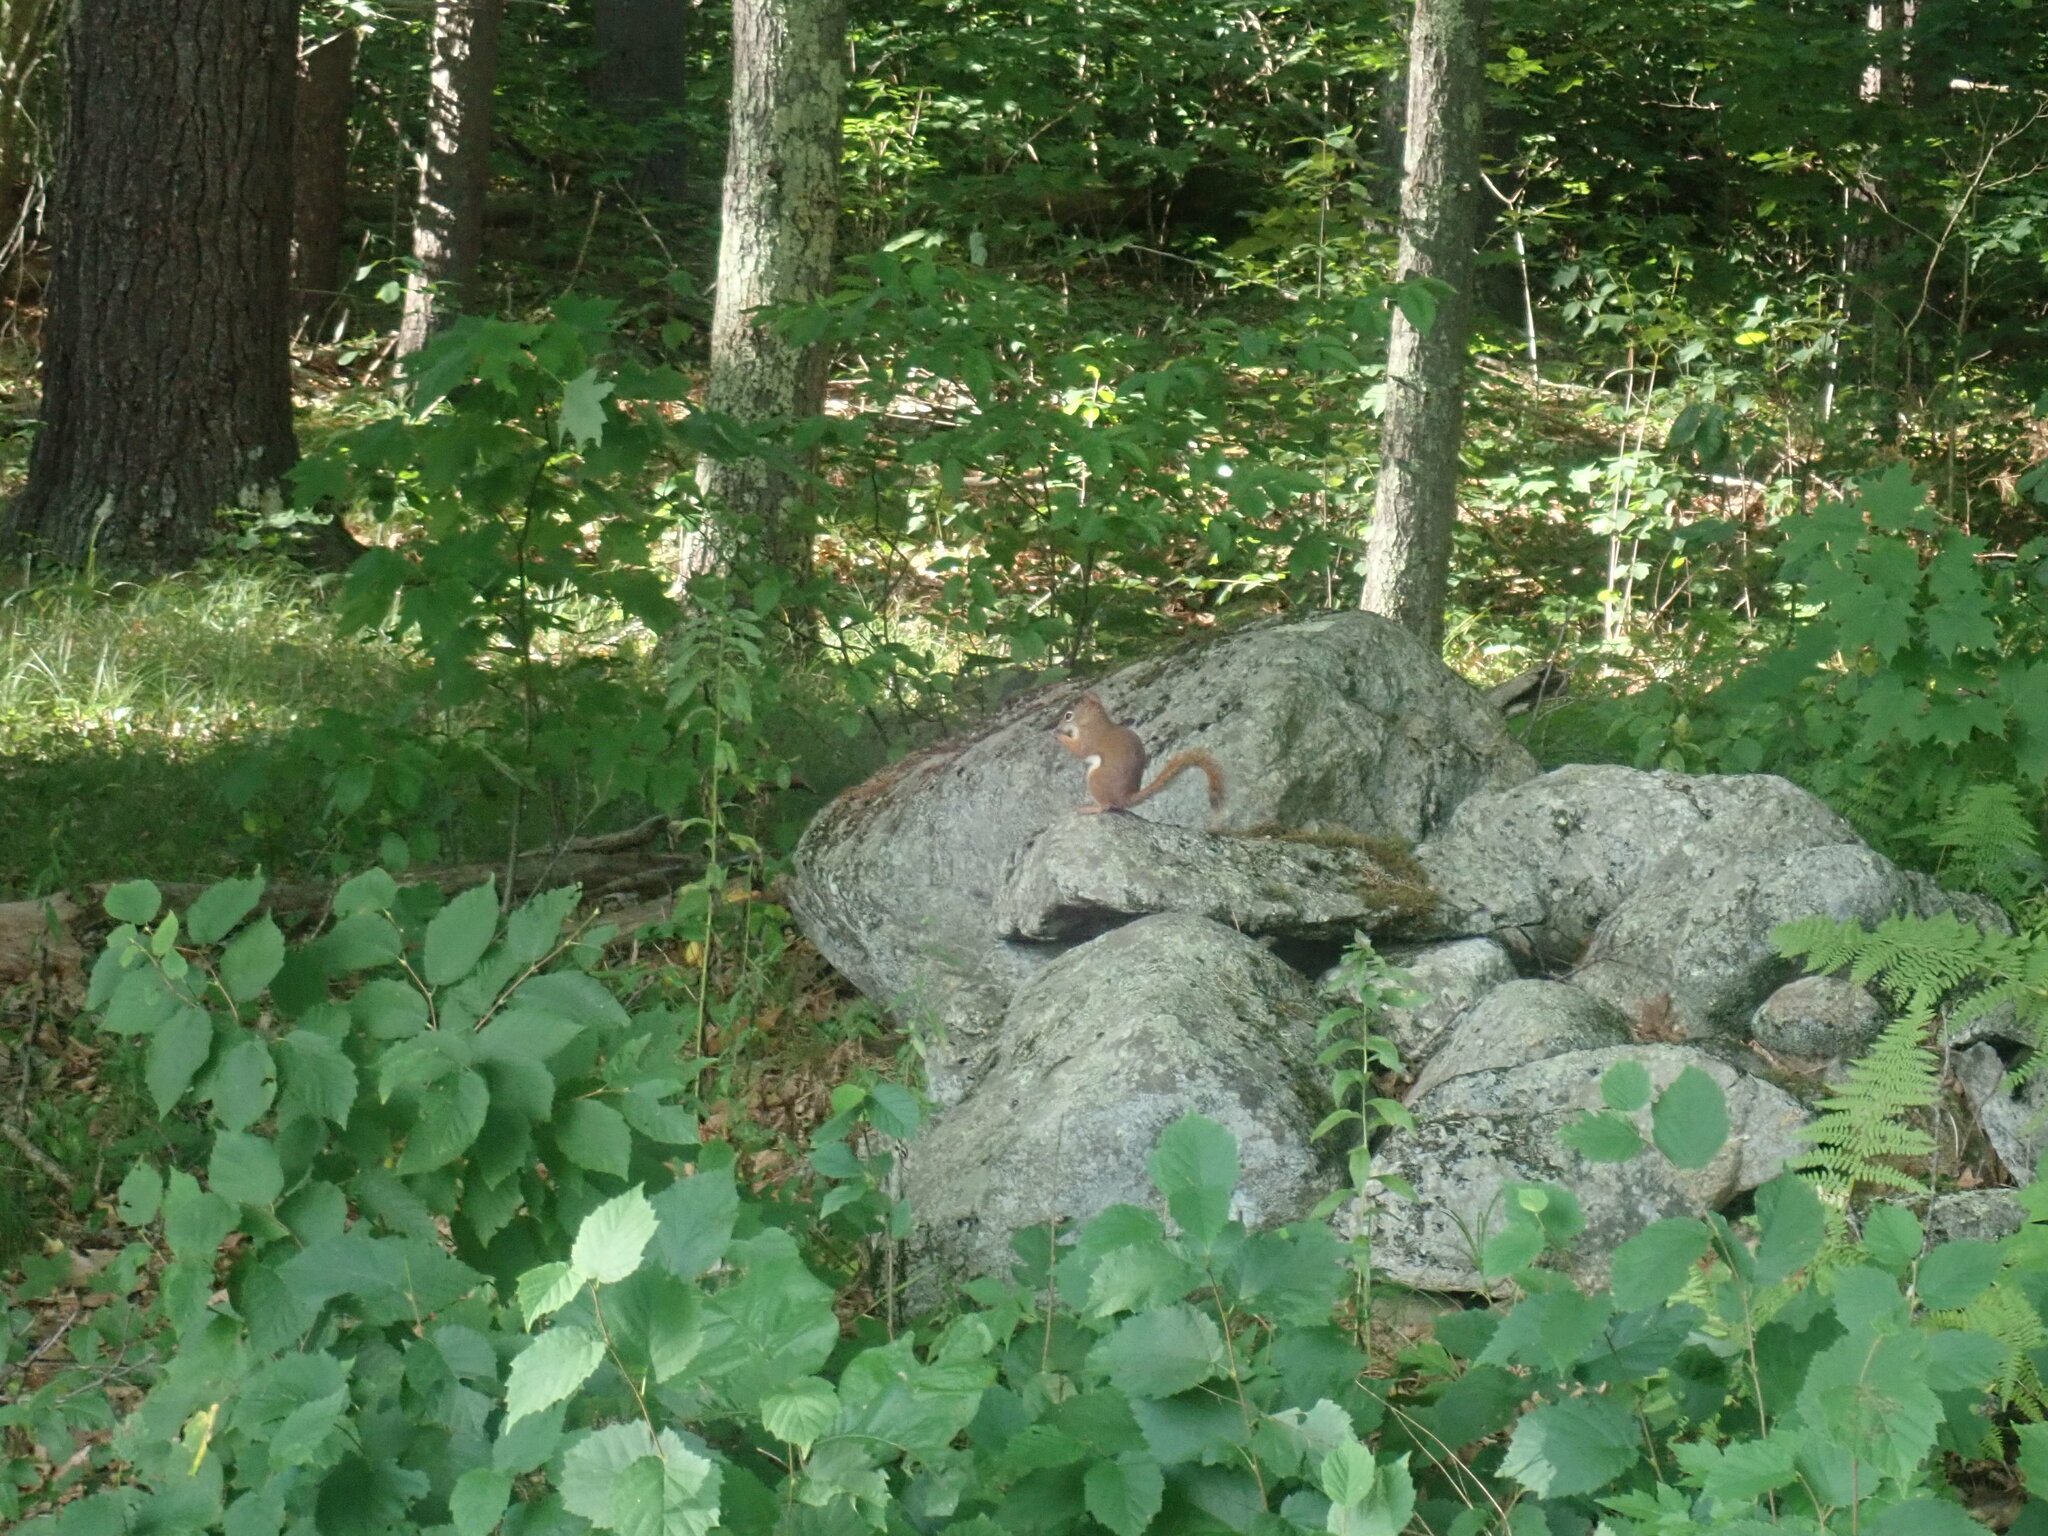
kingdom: Animalia
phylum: Chordata
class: Mammalia
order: Rodentia
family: Sciuridae
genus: Tamiasciurus
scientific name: Tamiasciurus hudsonicus
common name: Red squirrel
